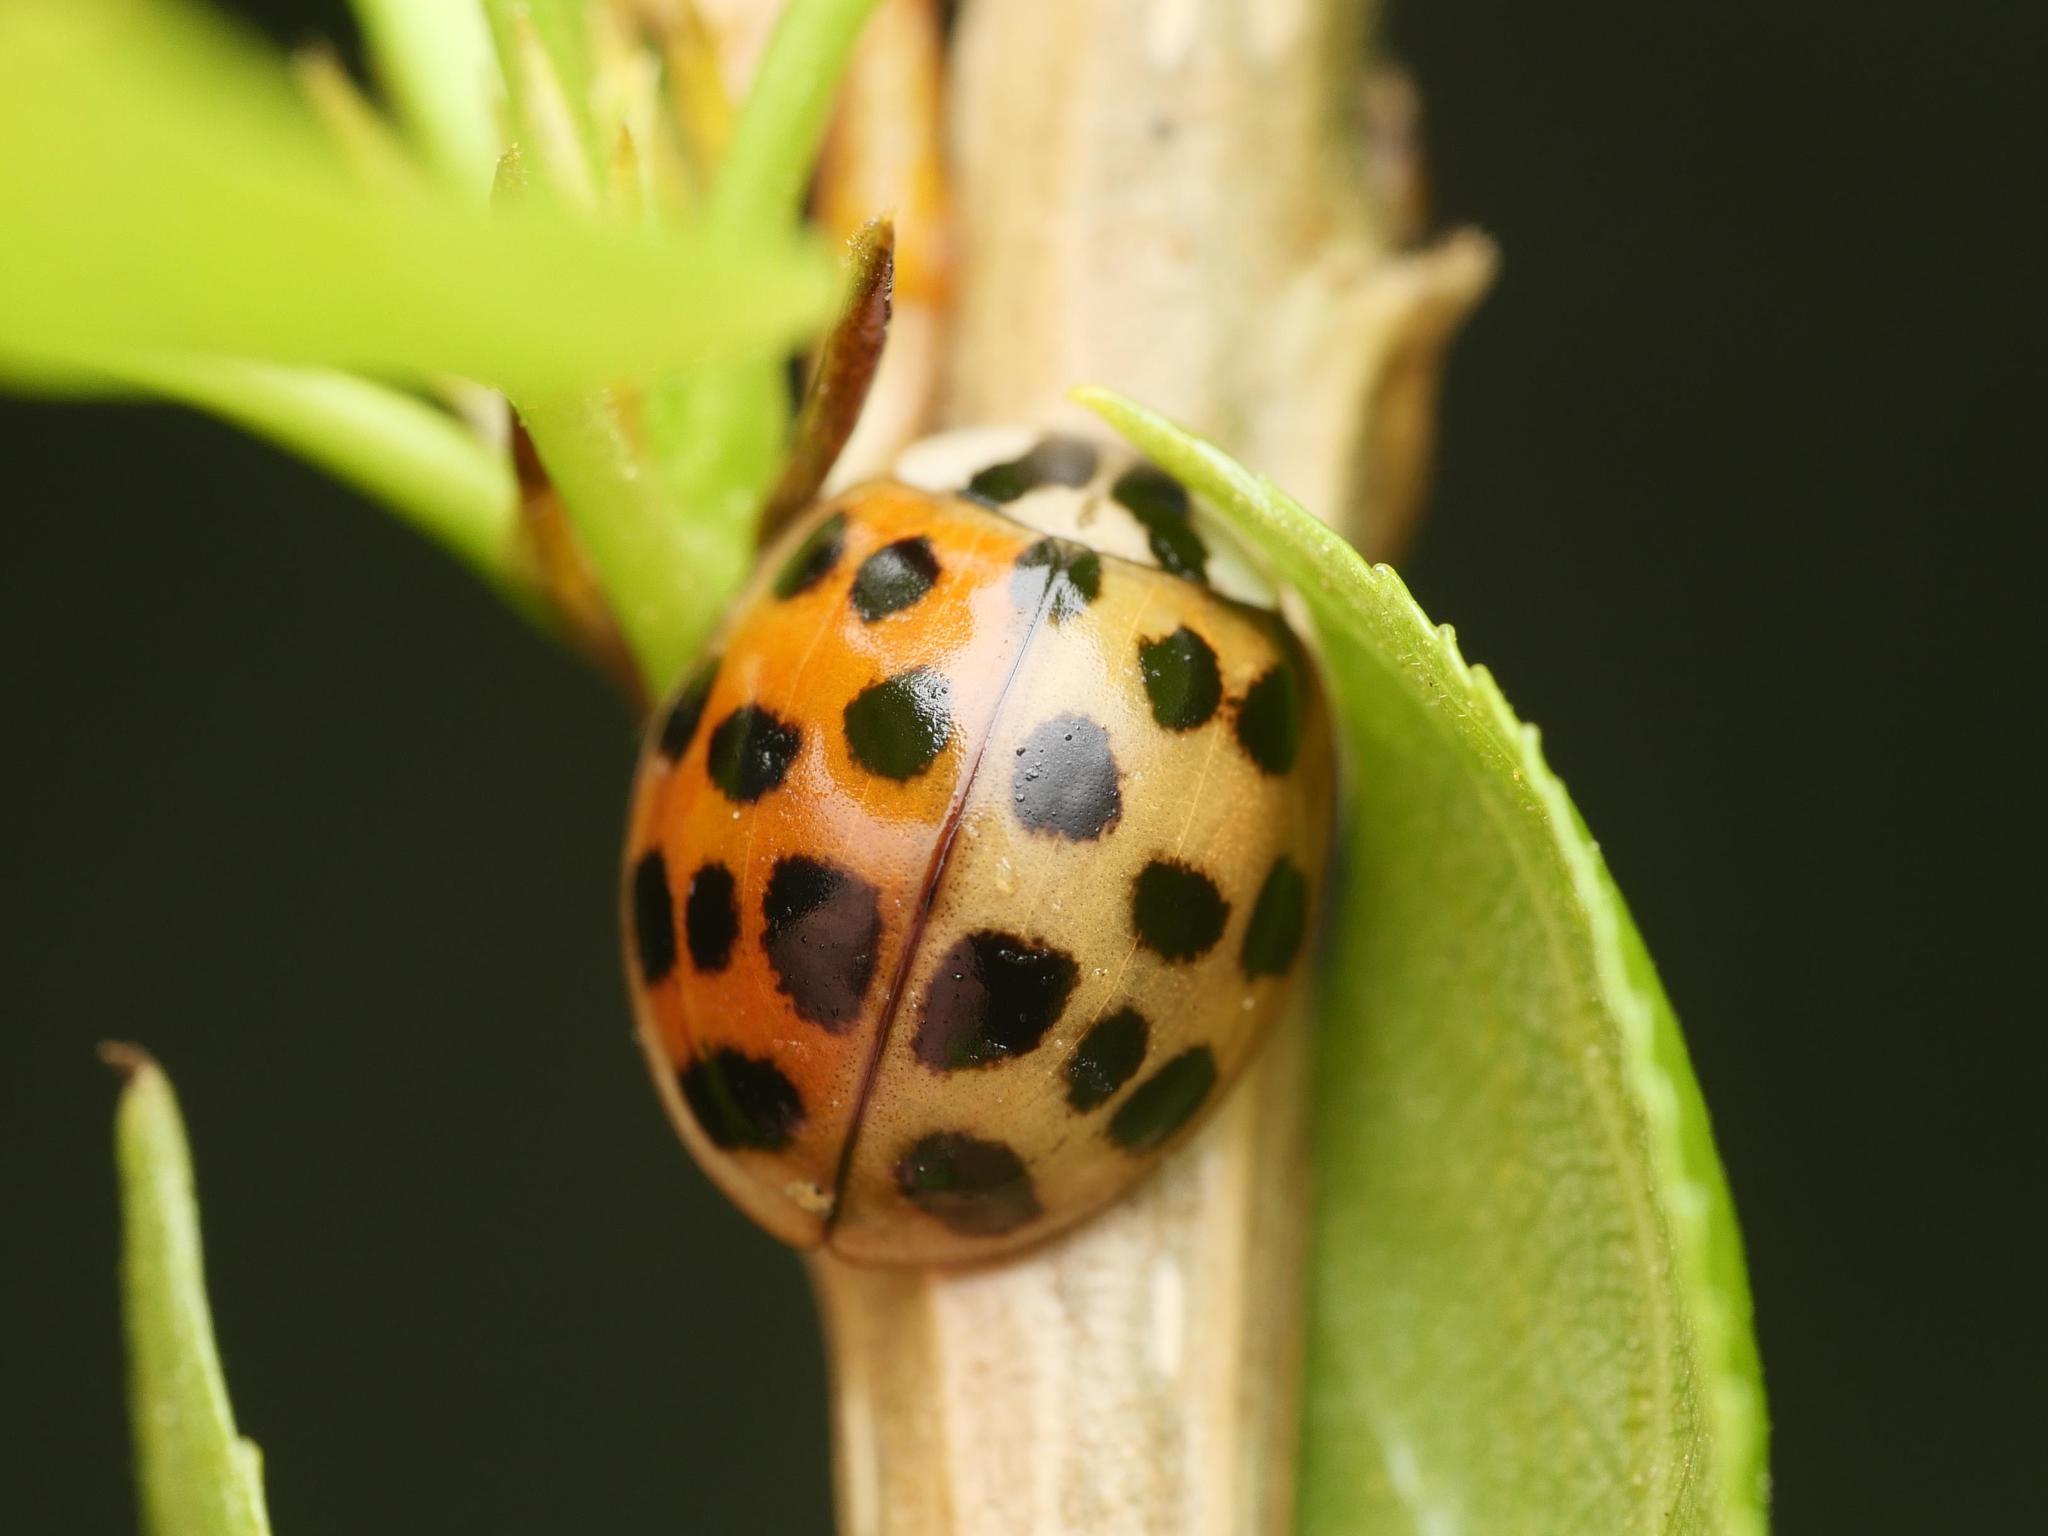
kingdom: Animalia
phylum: Arthropoda
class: Insecta
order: Coleoptera
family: Coccinellidae
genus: Harmonia
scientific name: Harmonia axyridis
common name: Harlequin ladybird
